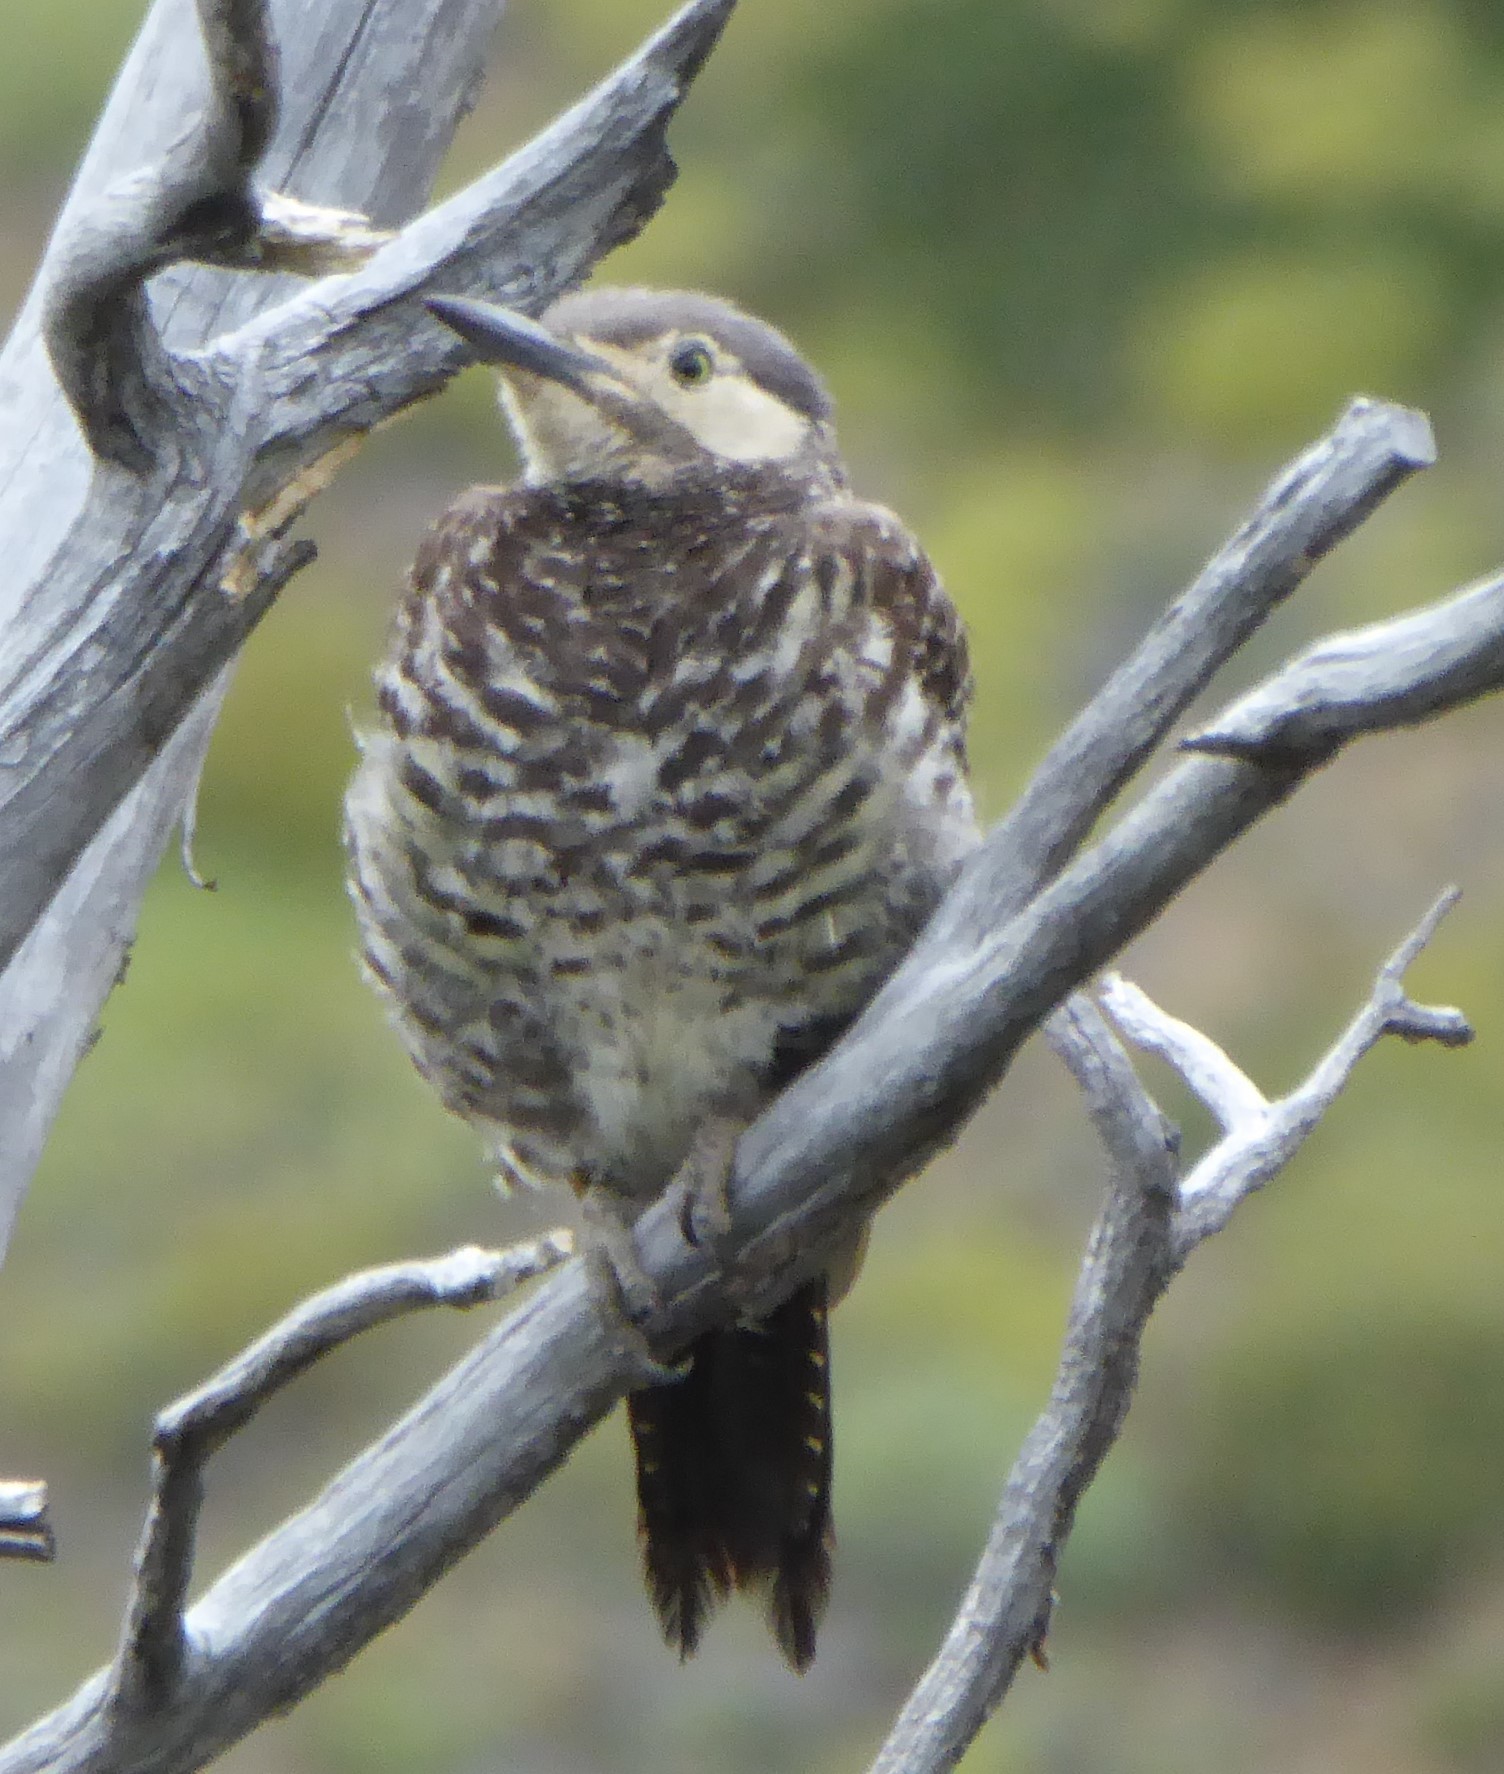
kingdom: Animalia
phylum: Chordata
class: Aves
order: Piciformes
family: Picidae
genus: Colaptes
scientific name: Colaptes pitius
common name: Chilean flicker
